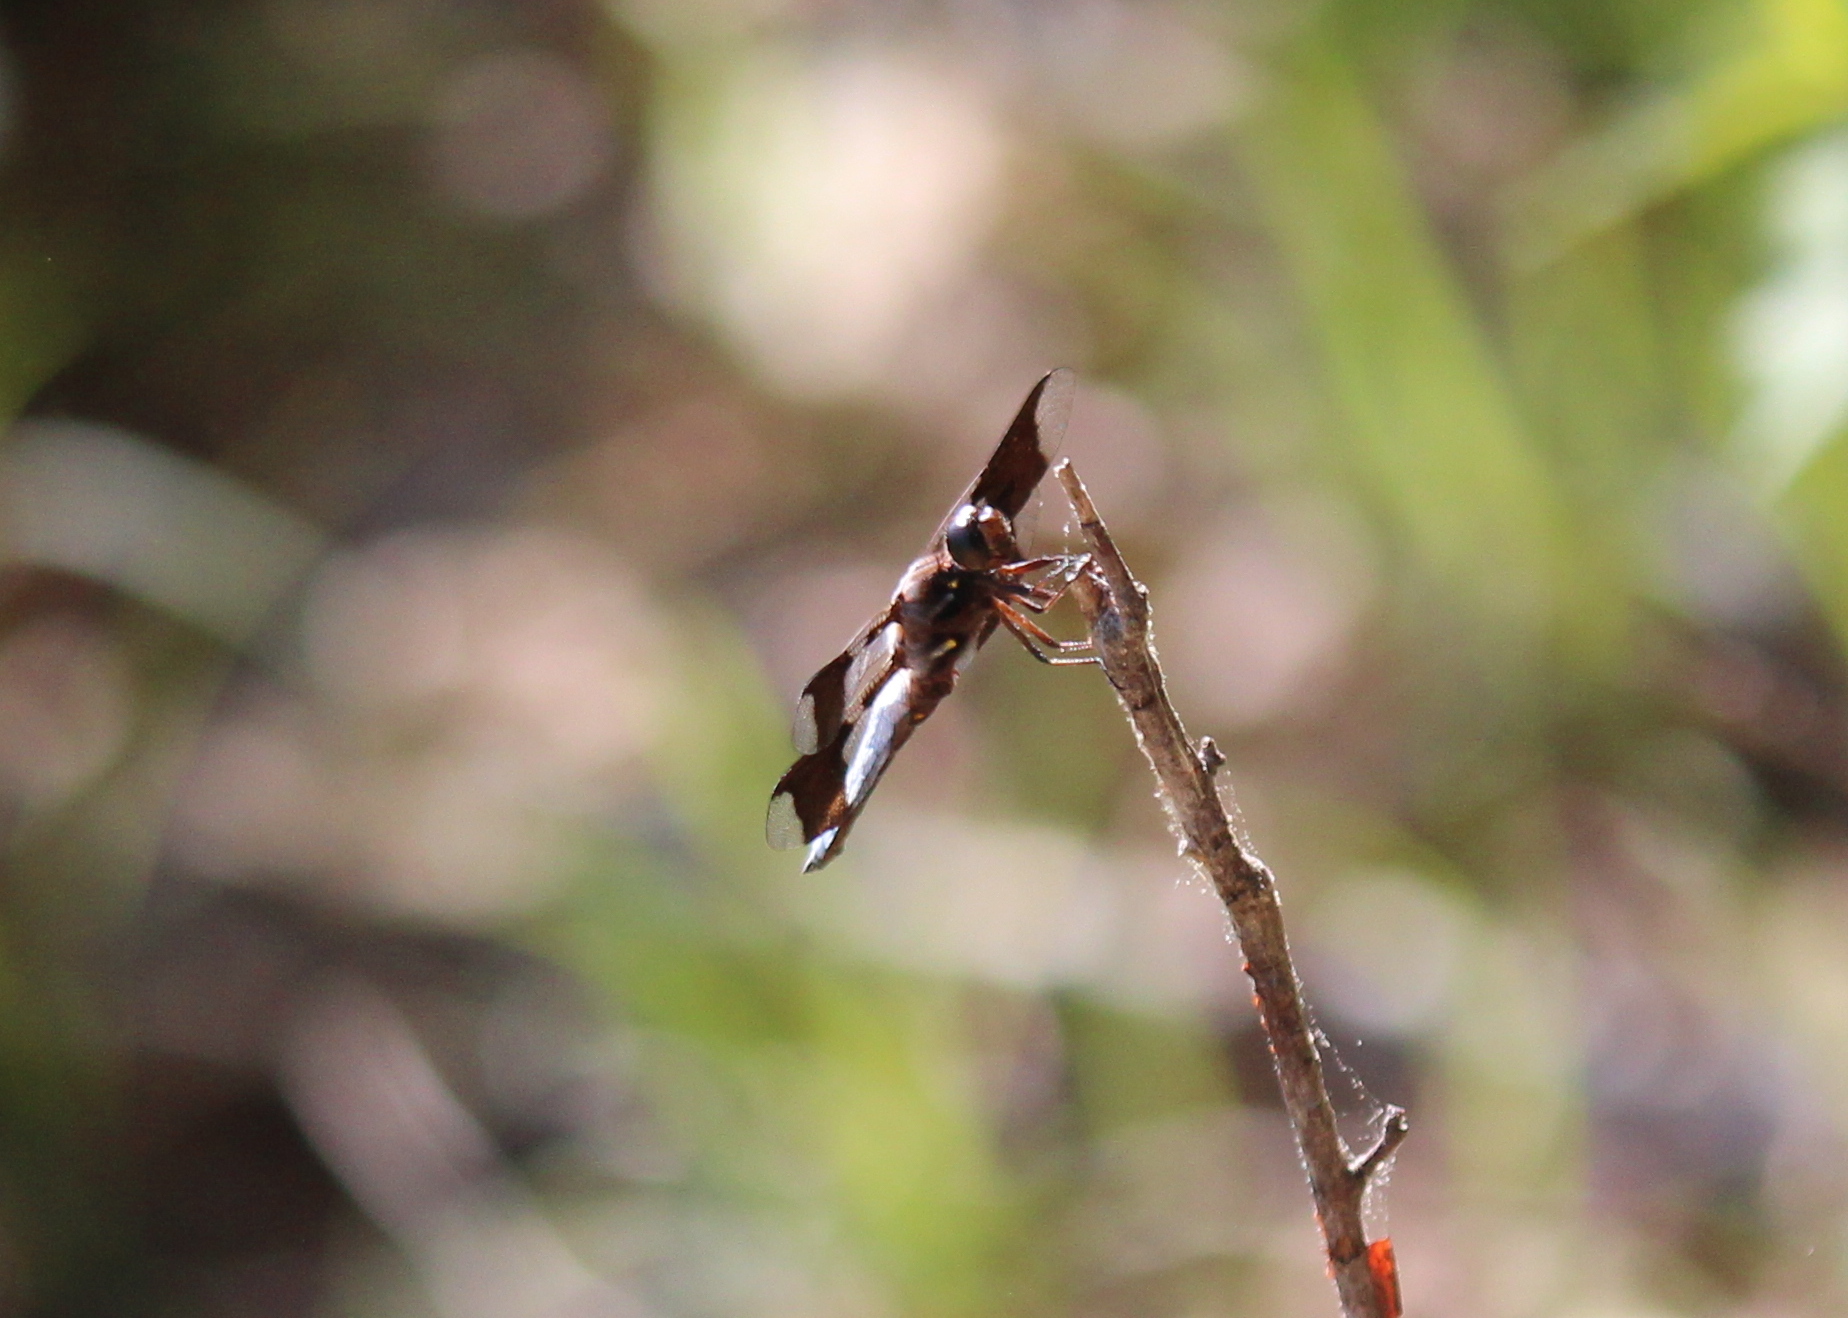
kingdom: Animalia
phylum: Arthropoda
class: Insecta
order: Odonata
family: Libellulidae
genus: Plathemis
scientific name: Plathemis lydia
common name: Common whitetail
